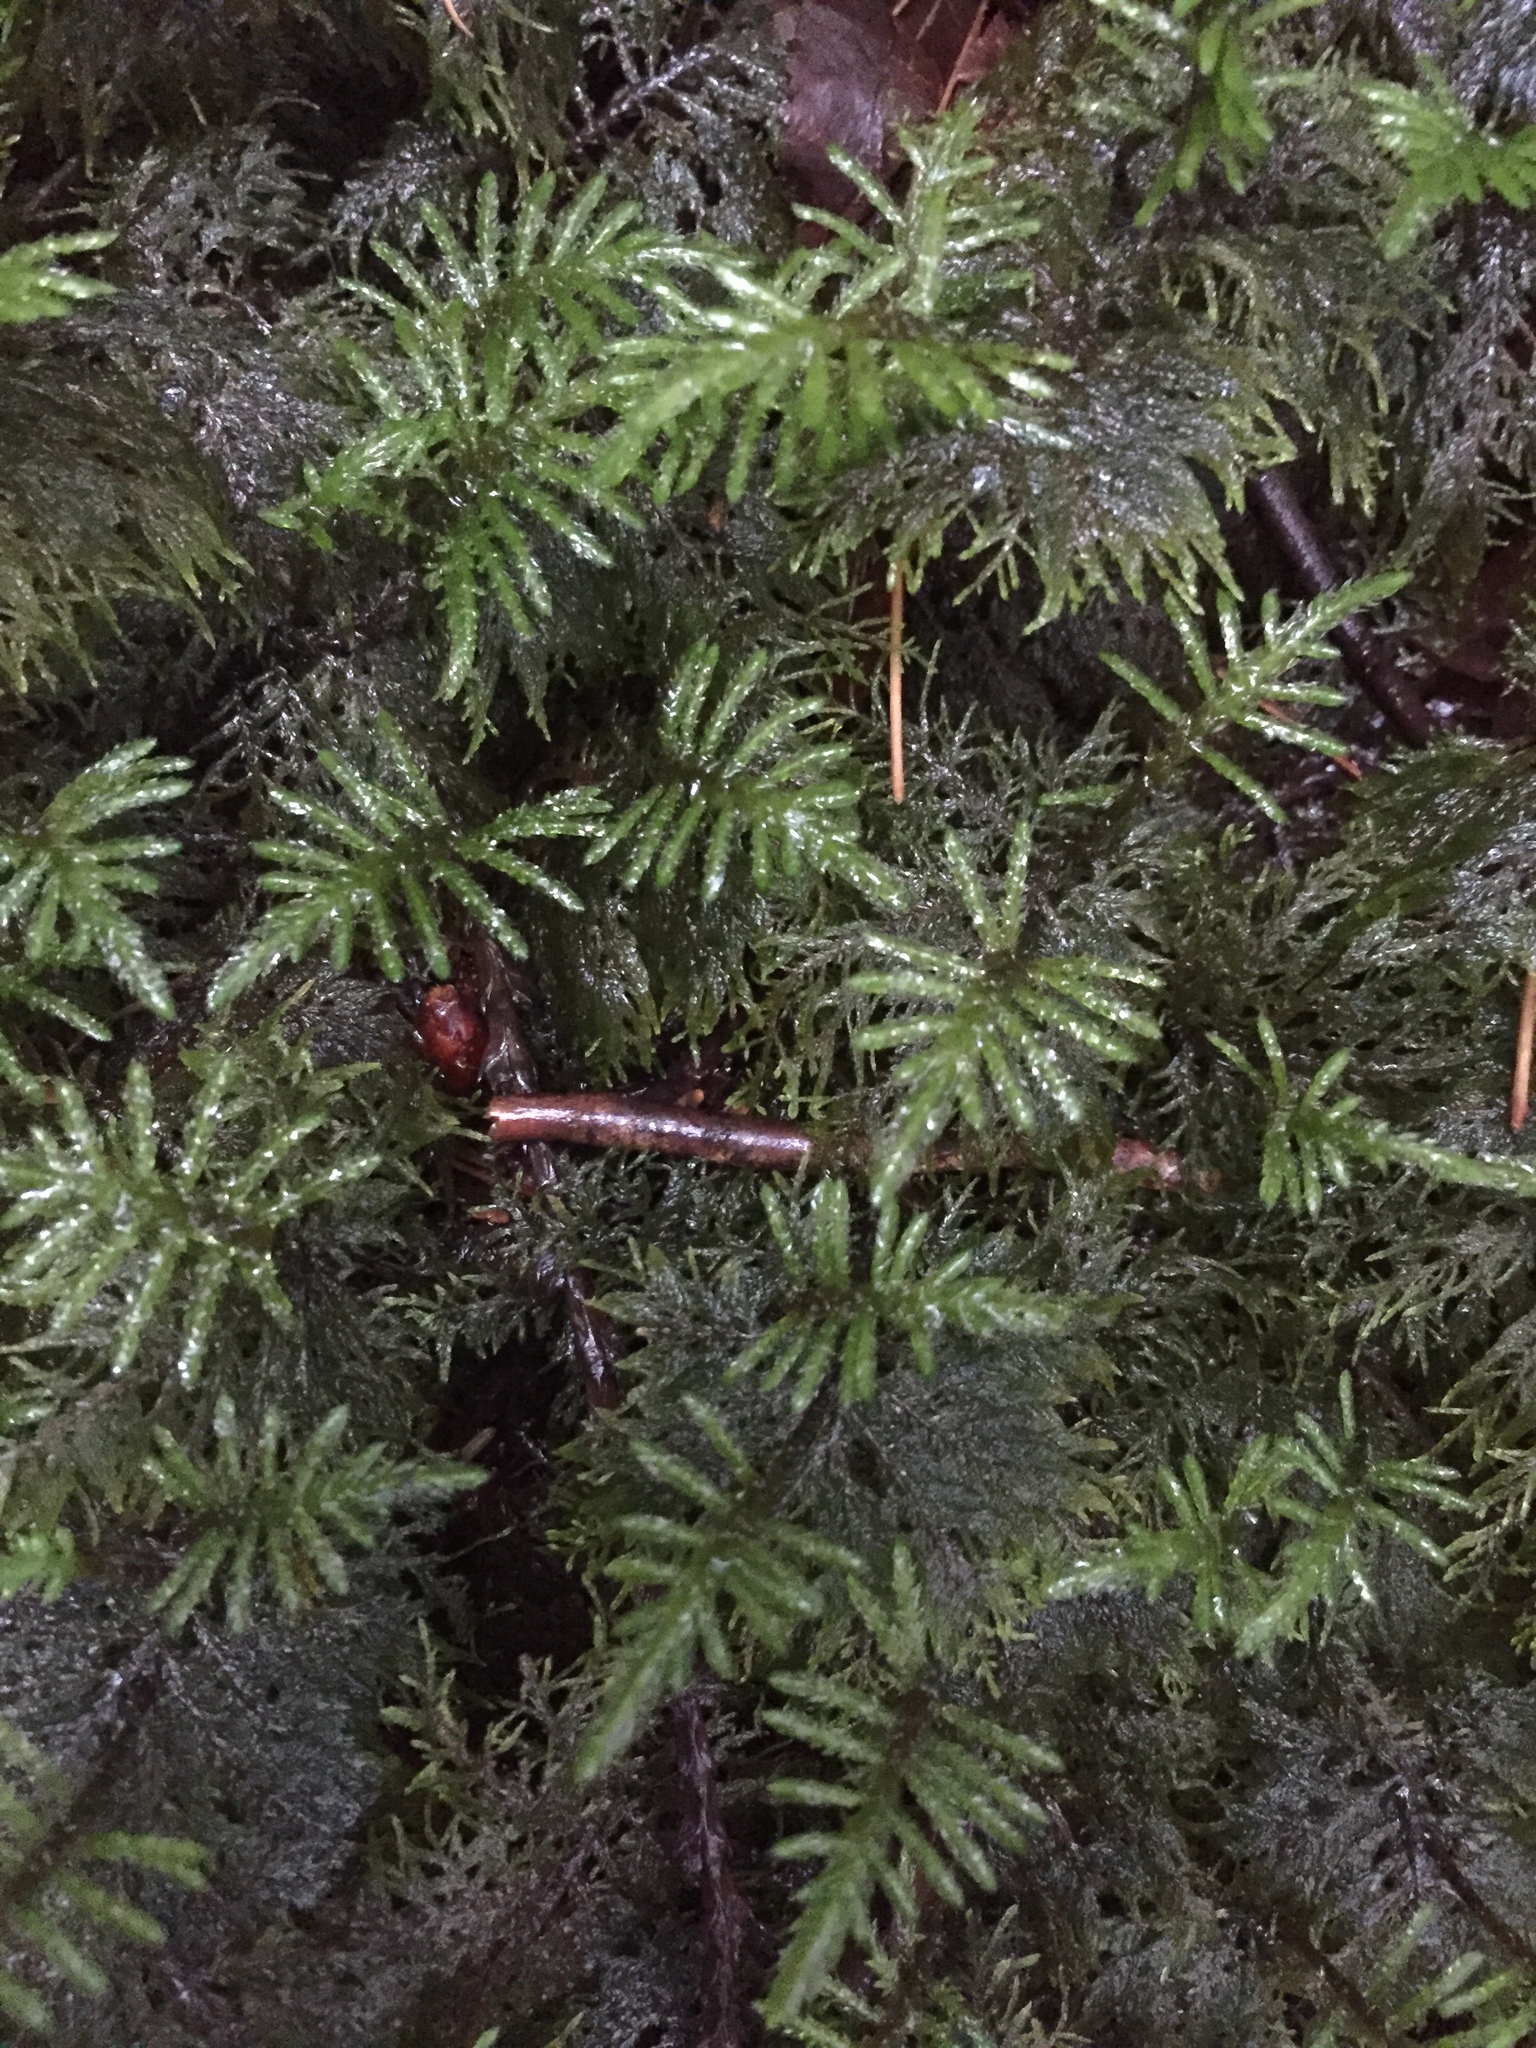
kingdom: Plantae
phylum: Bryophyta
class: Bryopsida
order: Hypnales
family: Hylocomiaceae
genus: Hylocomium
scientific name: Hylocomium splendens
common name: Stairstep moss
